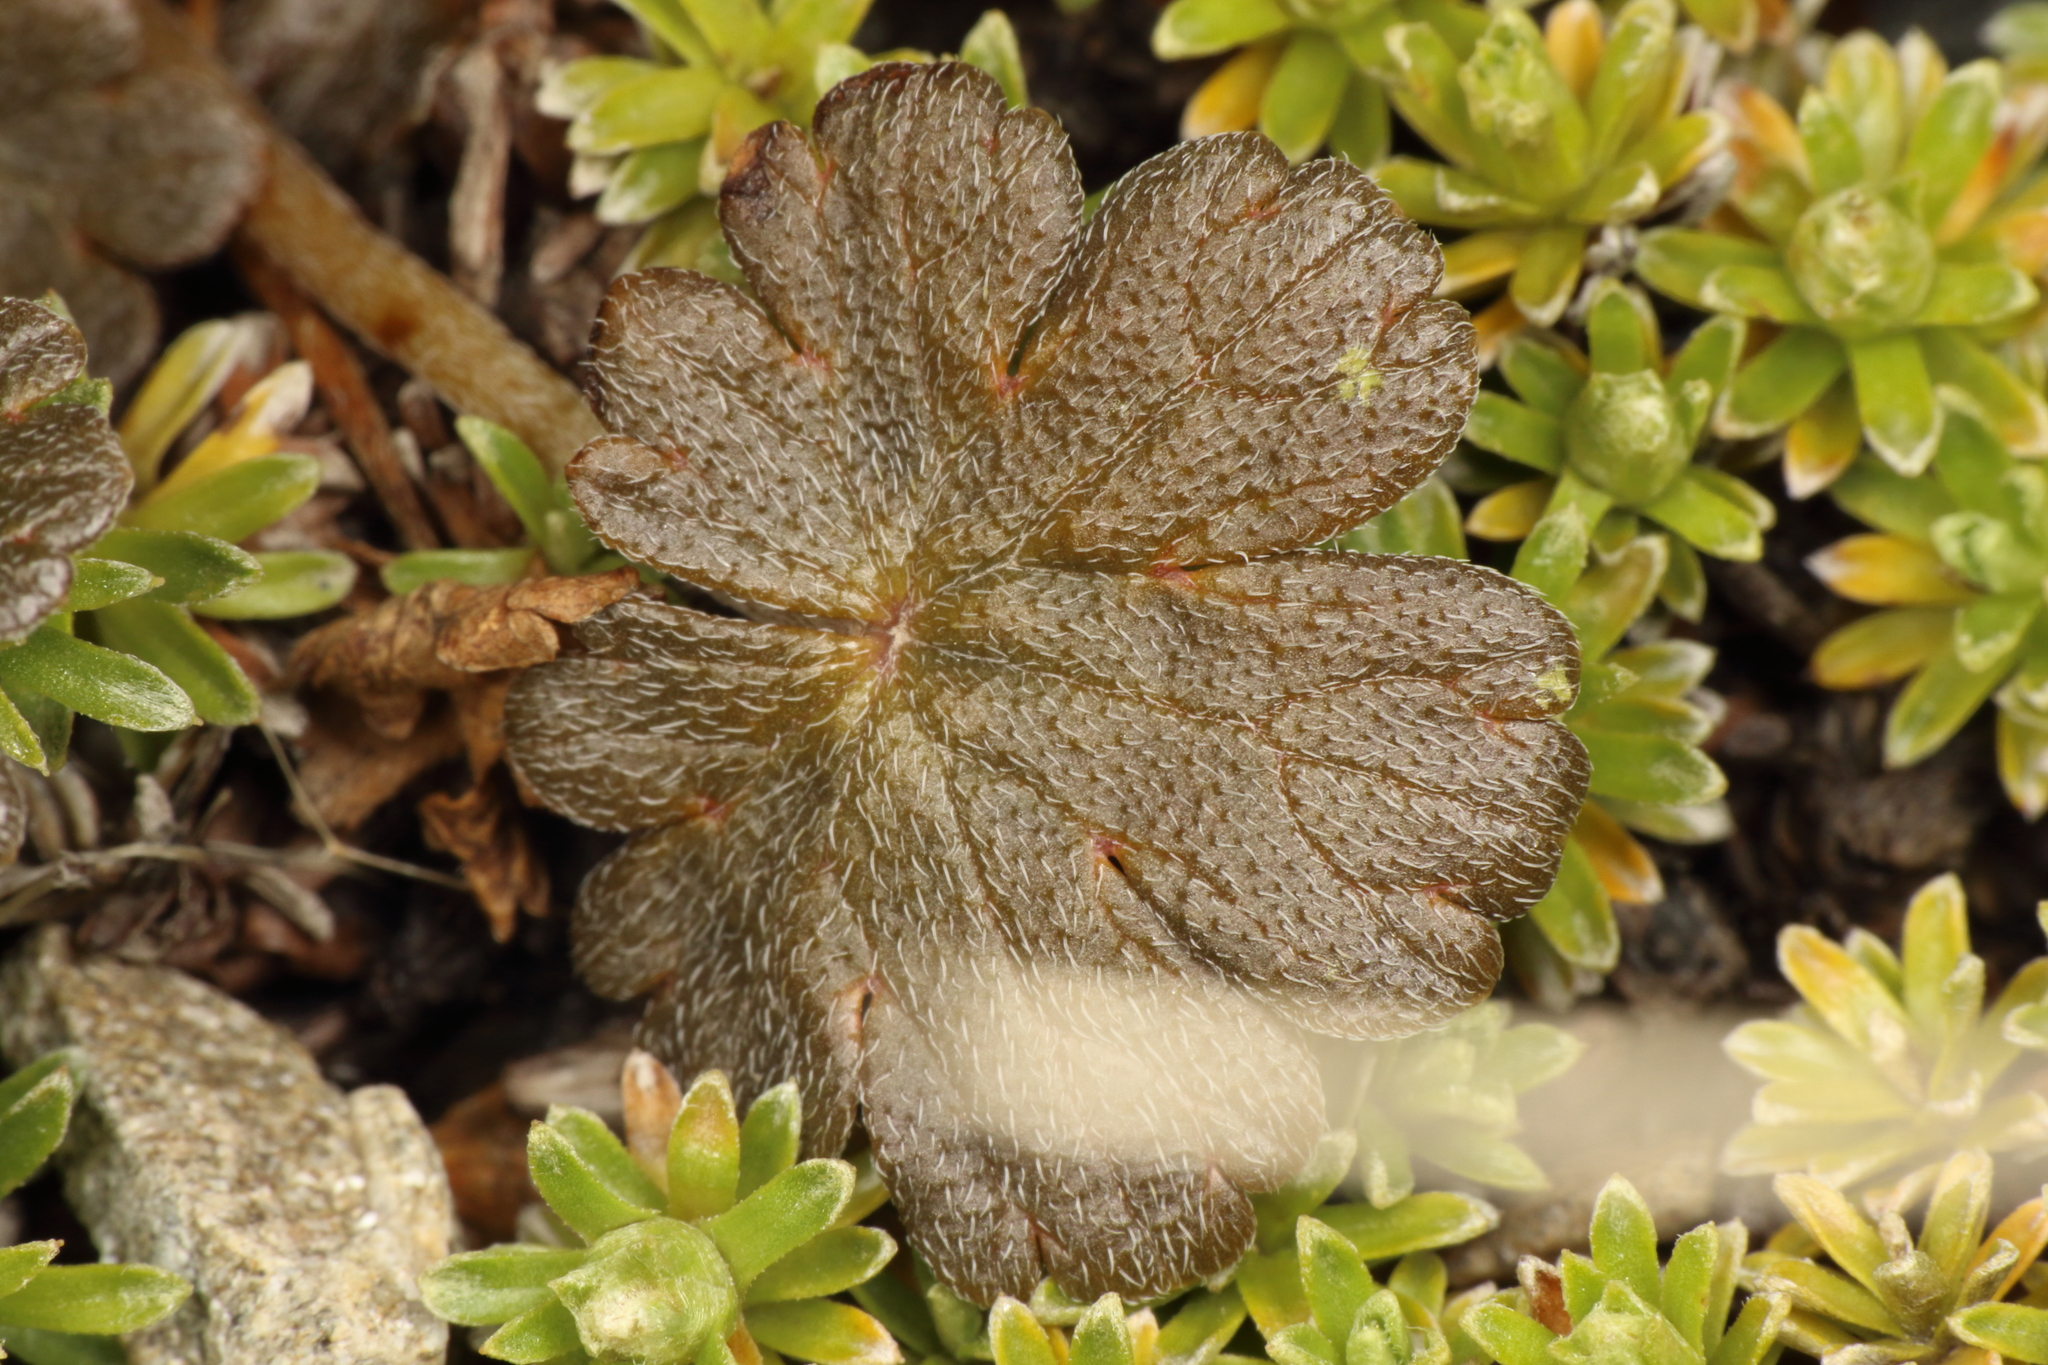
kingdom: Plantae
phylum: Tracheophyta
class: Magnoliopsida
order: Geraniales
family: Geraniaceae
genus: Geranium
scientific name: Geranium brevicaule
